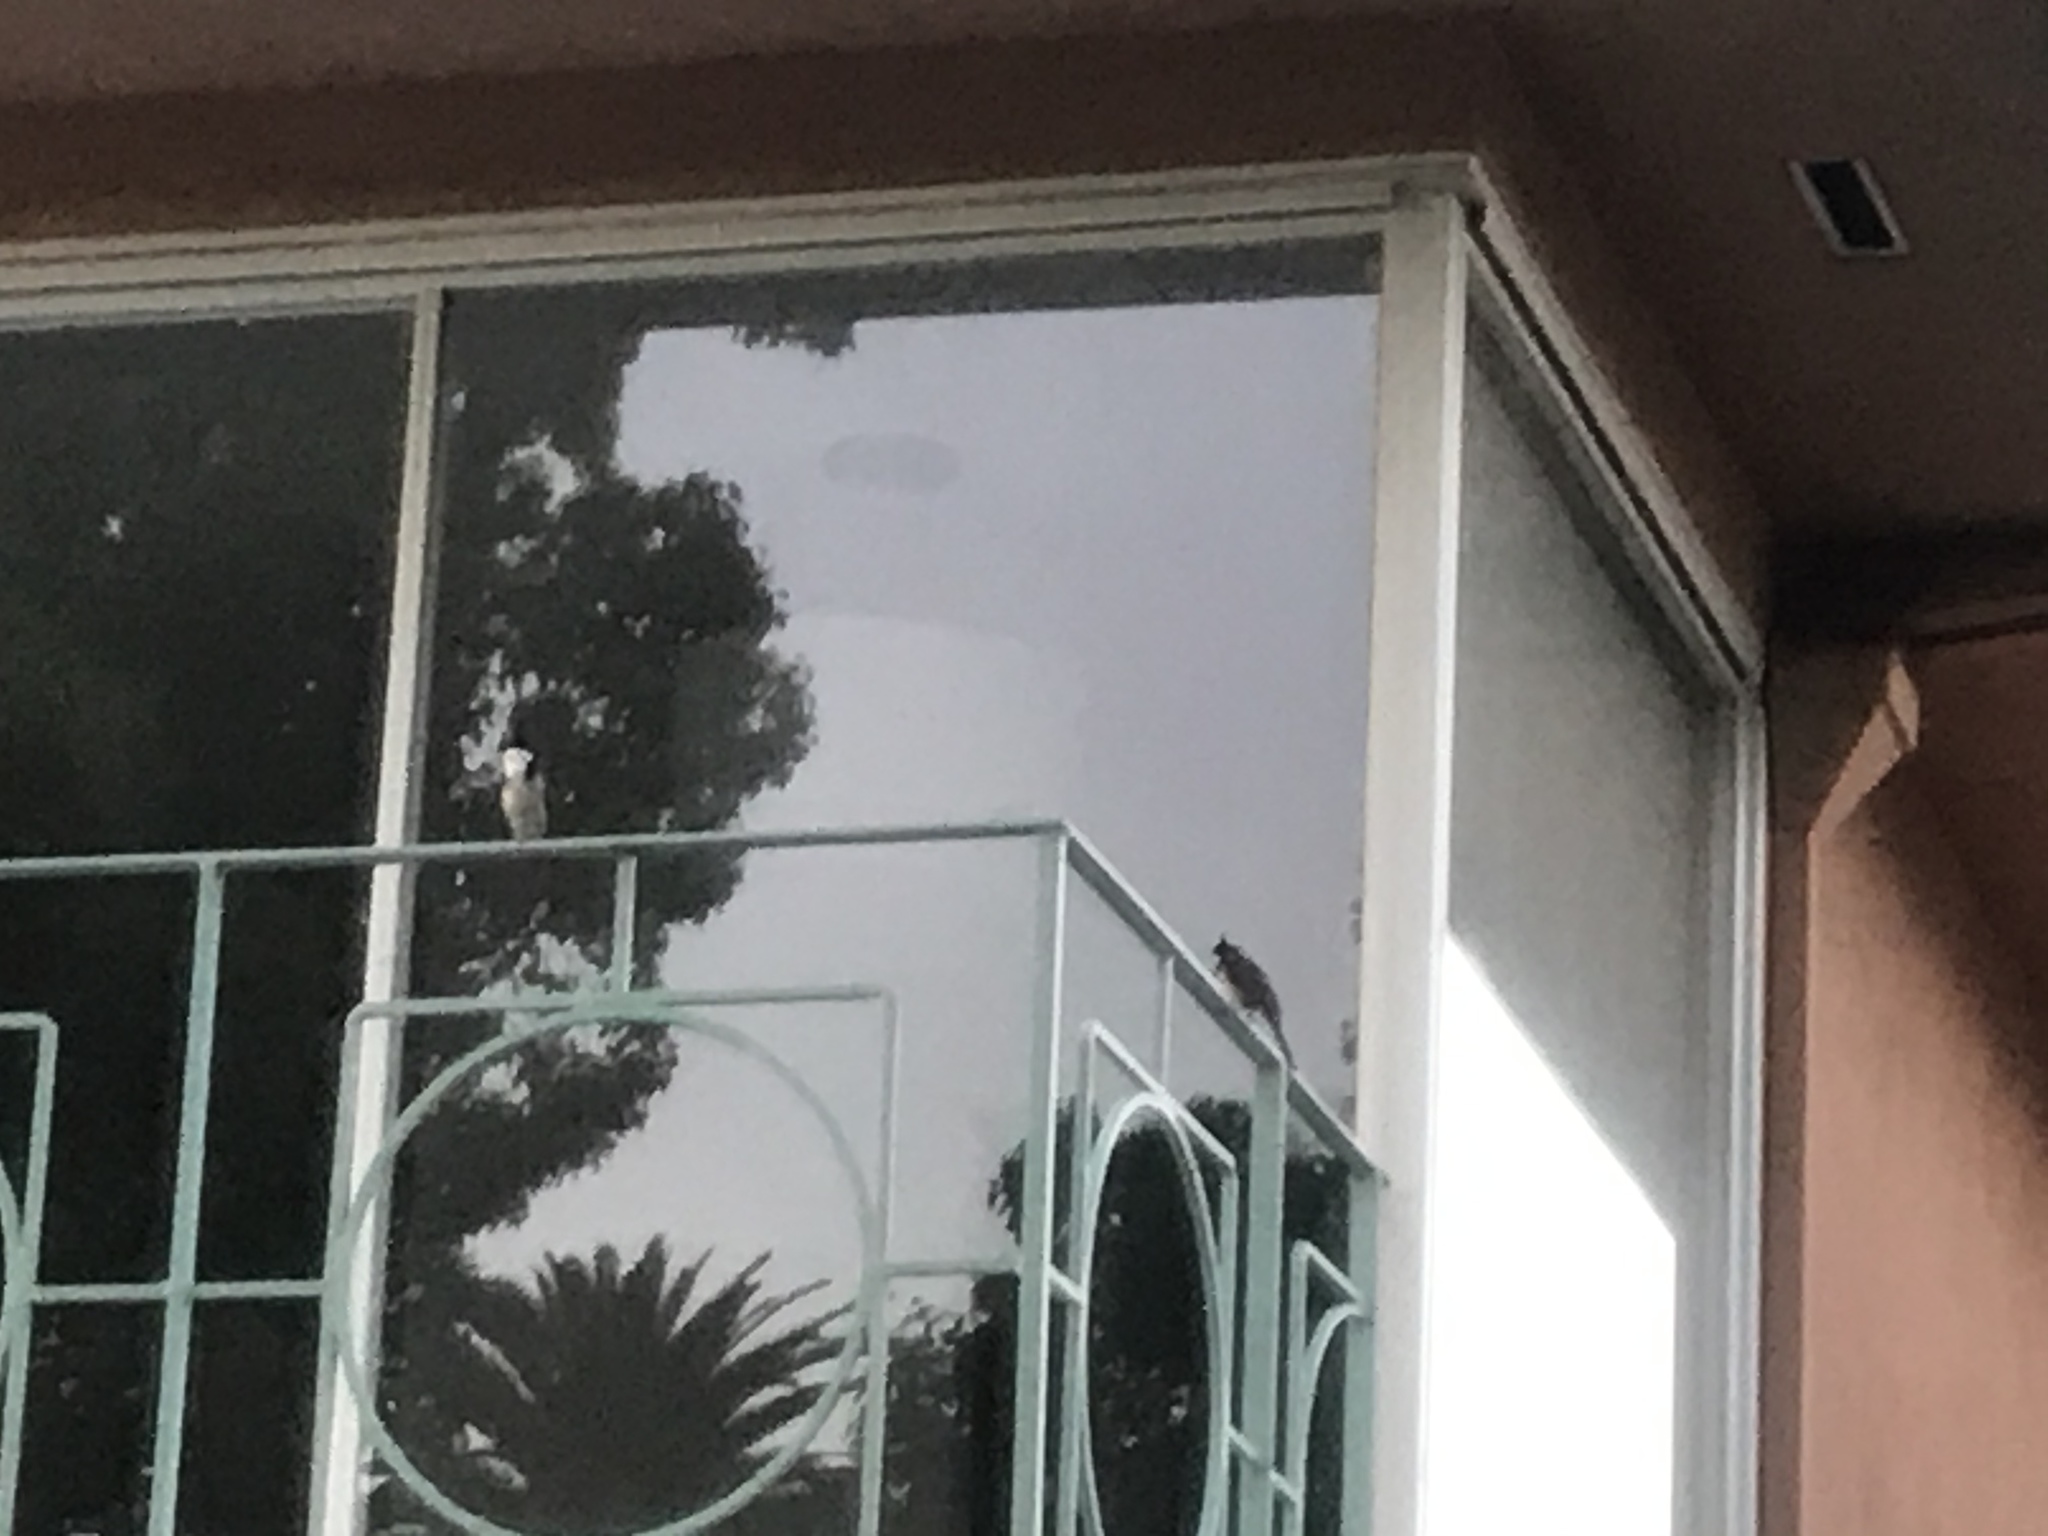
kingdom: Animalia
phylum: Chordata
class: Aves
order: Passeriformes
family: Pycnonotidae
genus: Pycnonotus
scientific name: Pycnonotus jocosus
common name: Red-whiskered bulbul
